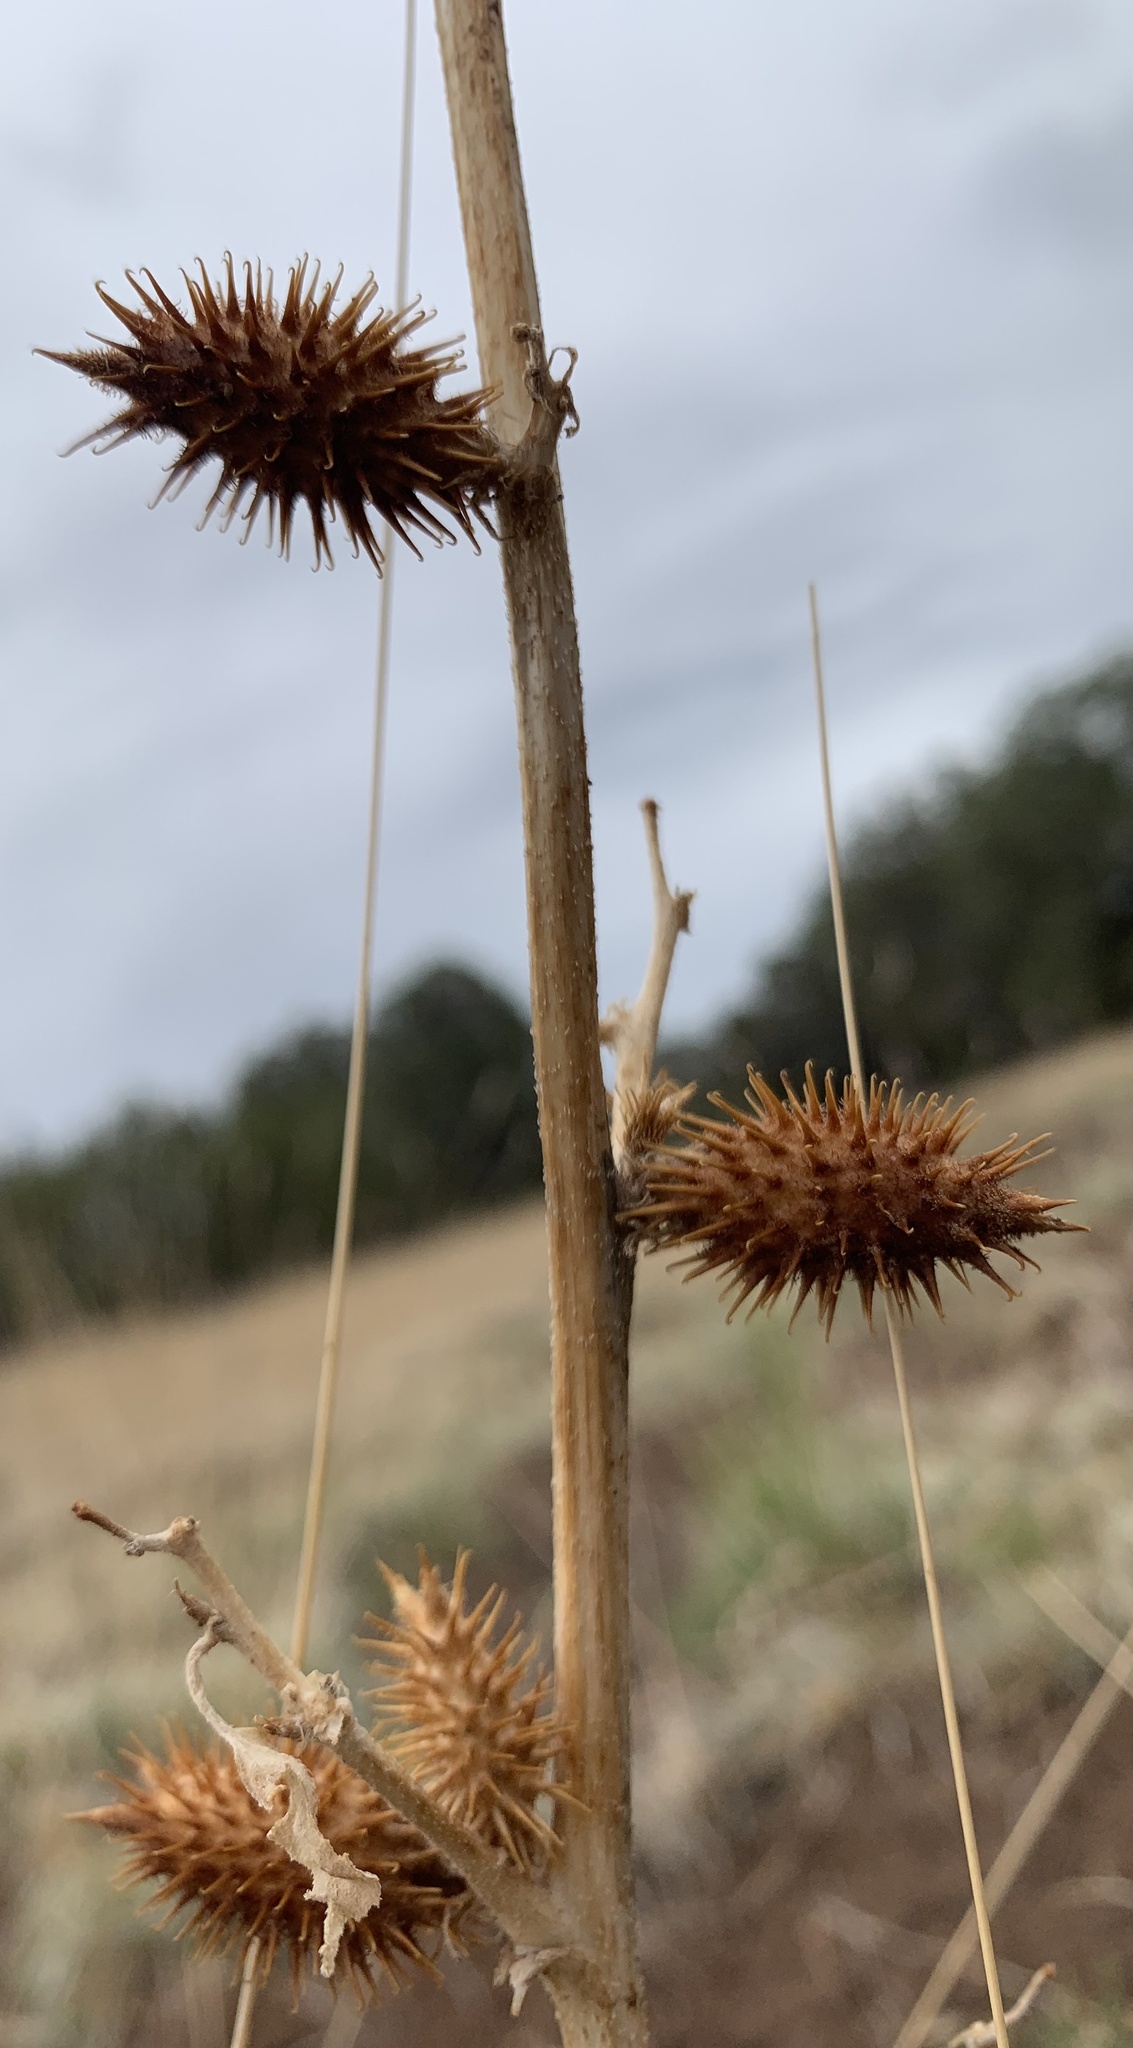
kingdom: Plantae
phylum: Tracheophyta
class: Magnoliopsida
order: Asterales
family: Asteraceae
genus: Xanthium
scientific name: Xanthium strumarium
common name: Rough cocklebur
